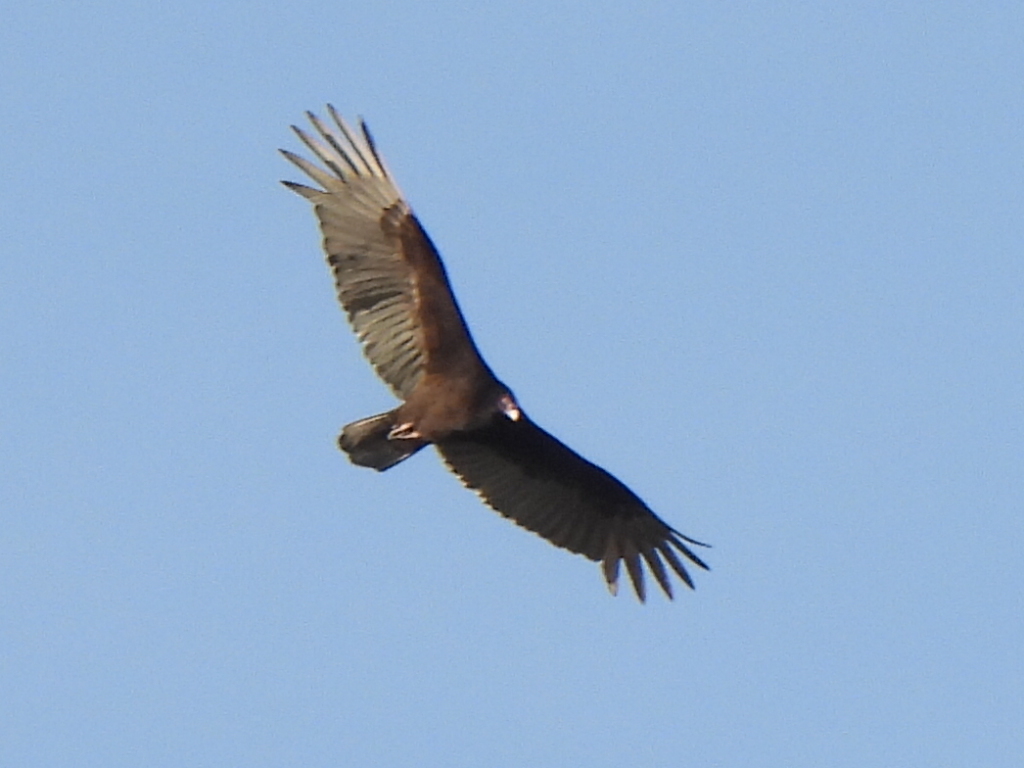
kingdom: Animalia
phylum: Chordata
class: Aves
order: Accipitriformes
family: Cathartidae
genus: Cathartes
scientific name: Cathartes aura
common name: Turkey vulture
